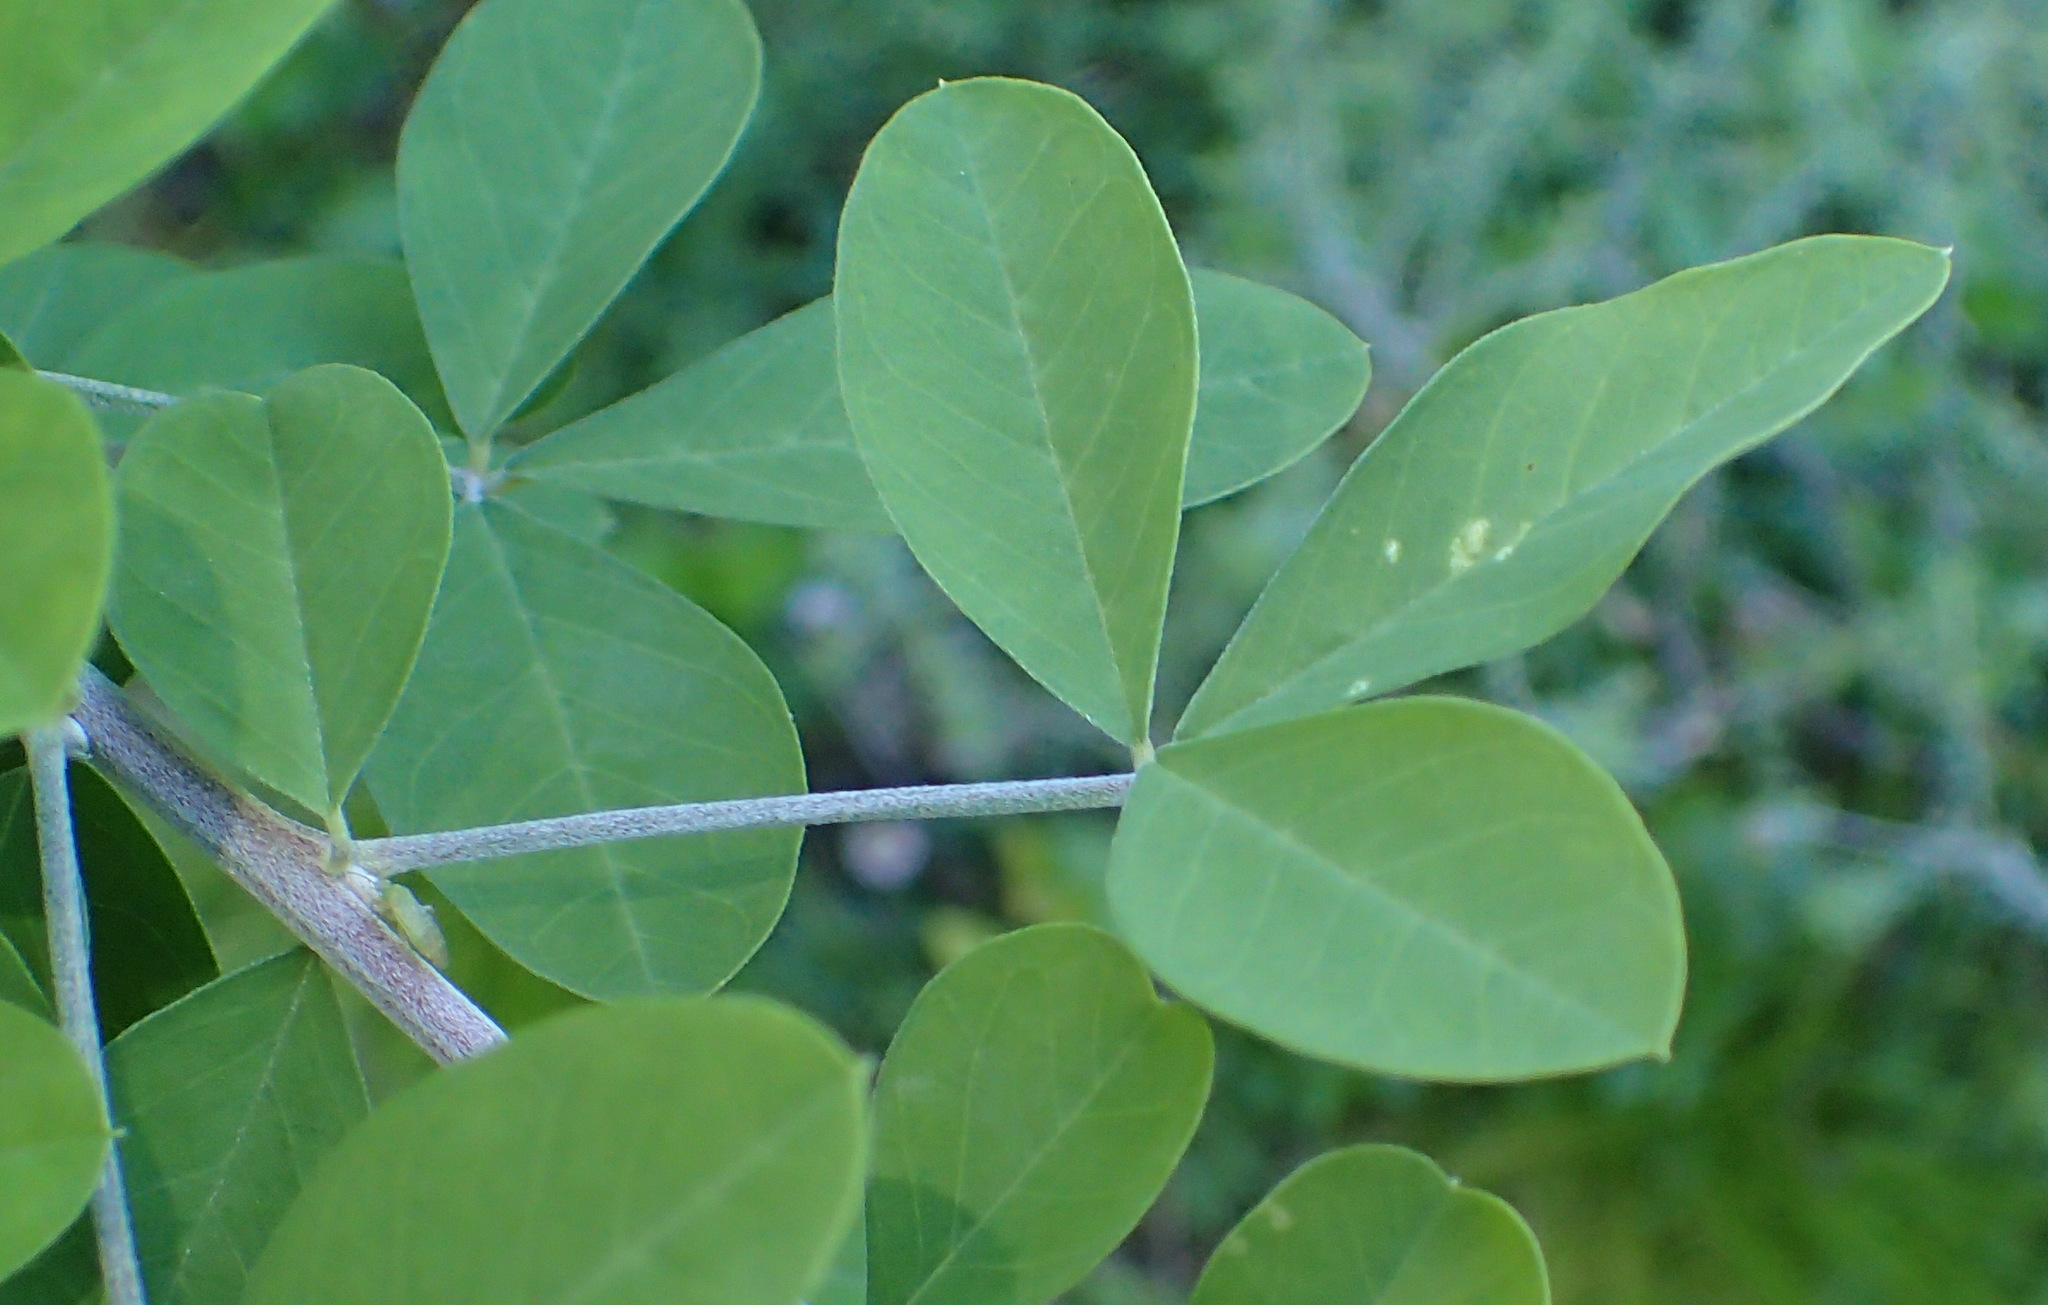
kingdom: Plantae
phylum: Tracheophyta
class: Magnoliopsida
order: Fabales
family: Fabaceae
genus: Crotalaria
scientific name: Crotalaria capensis
